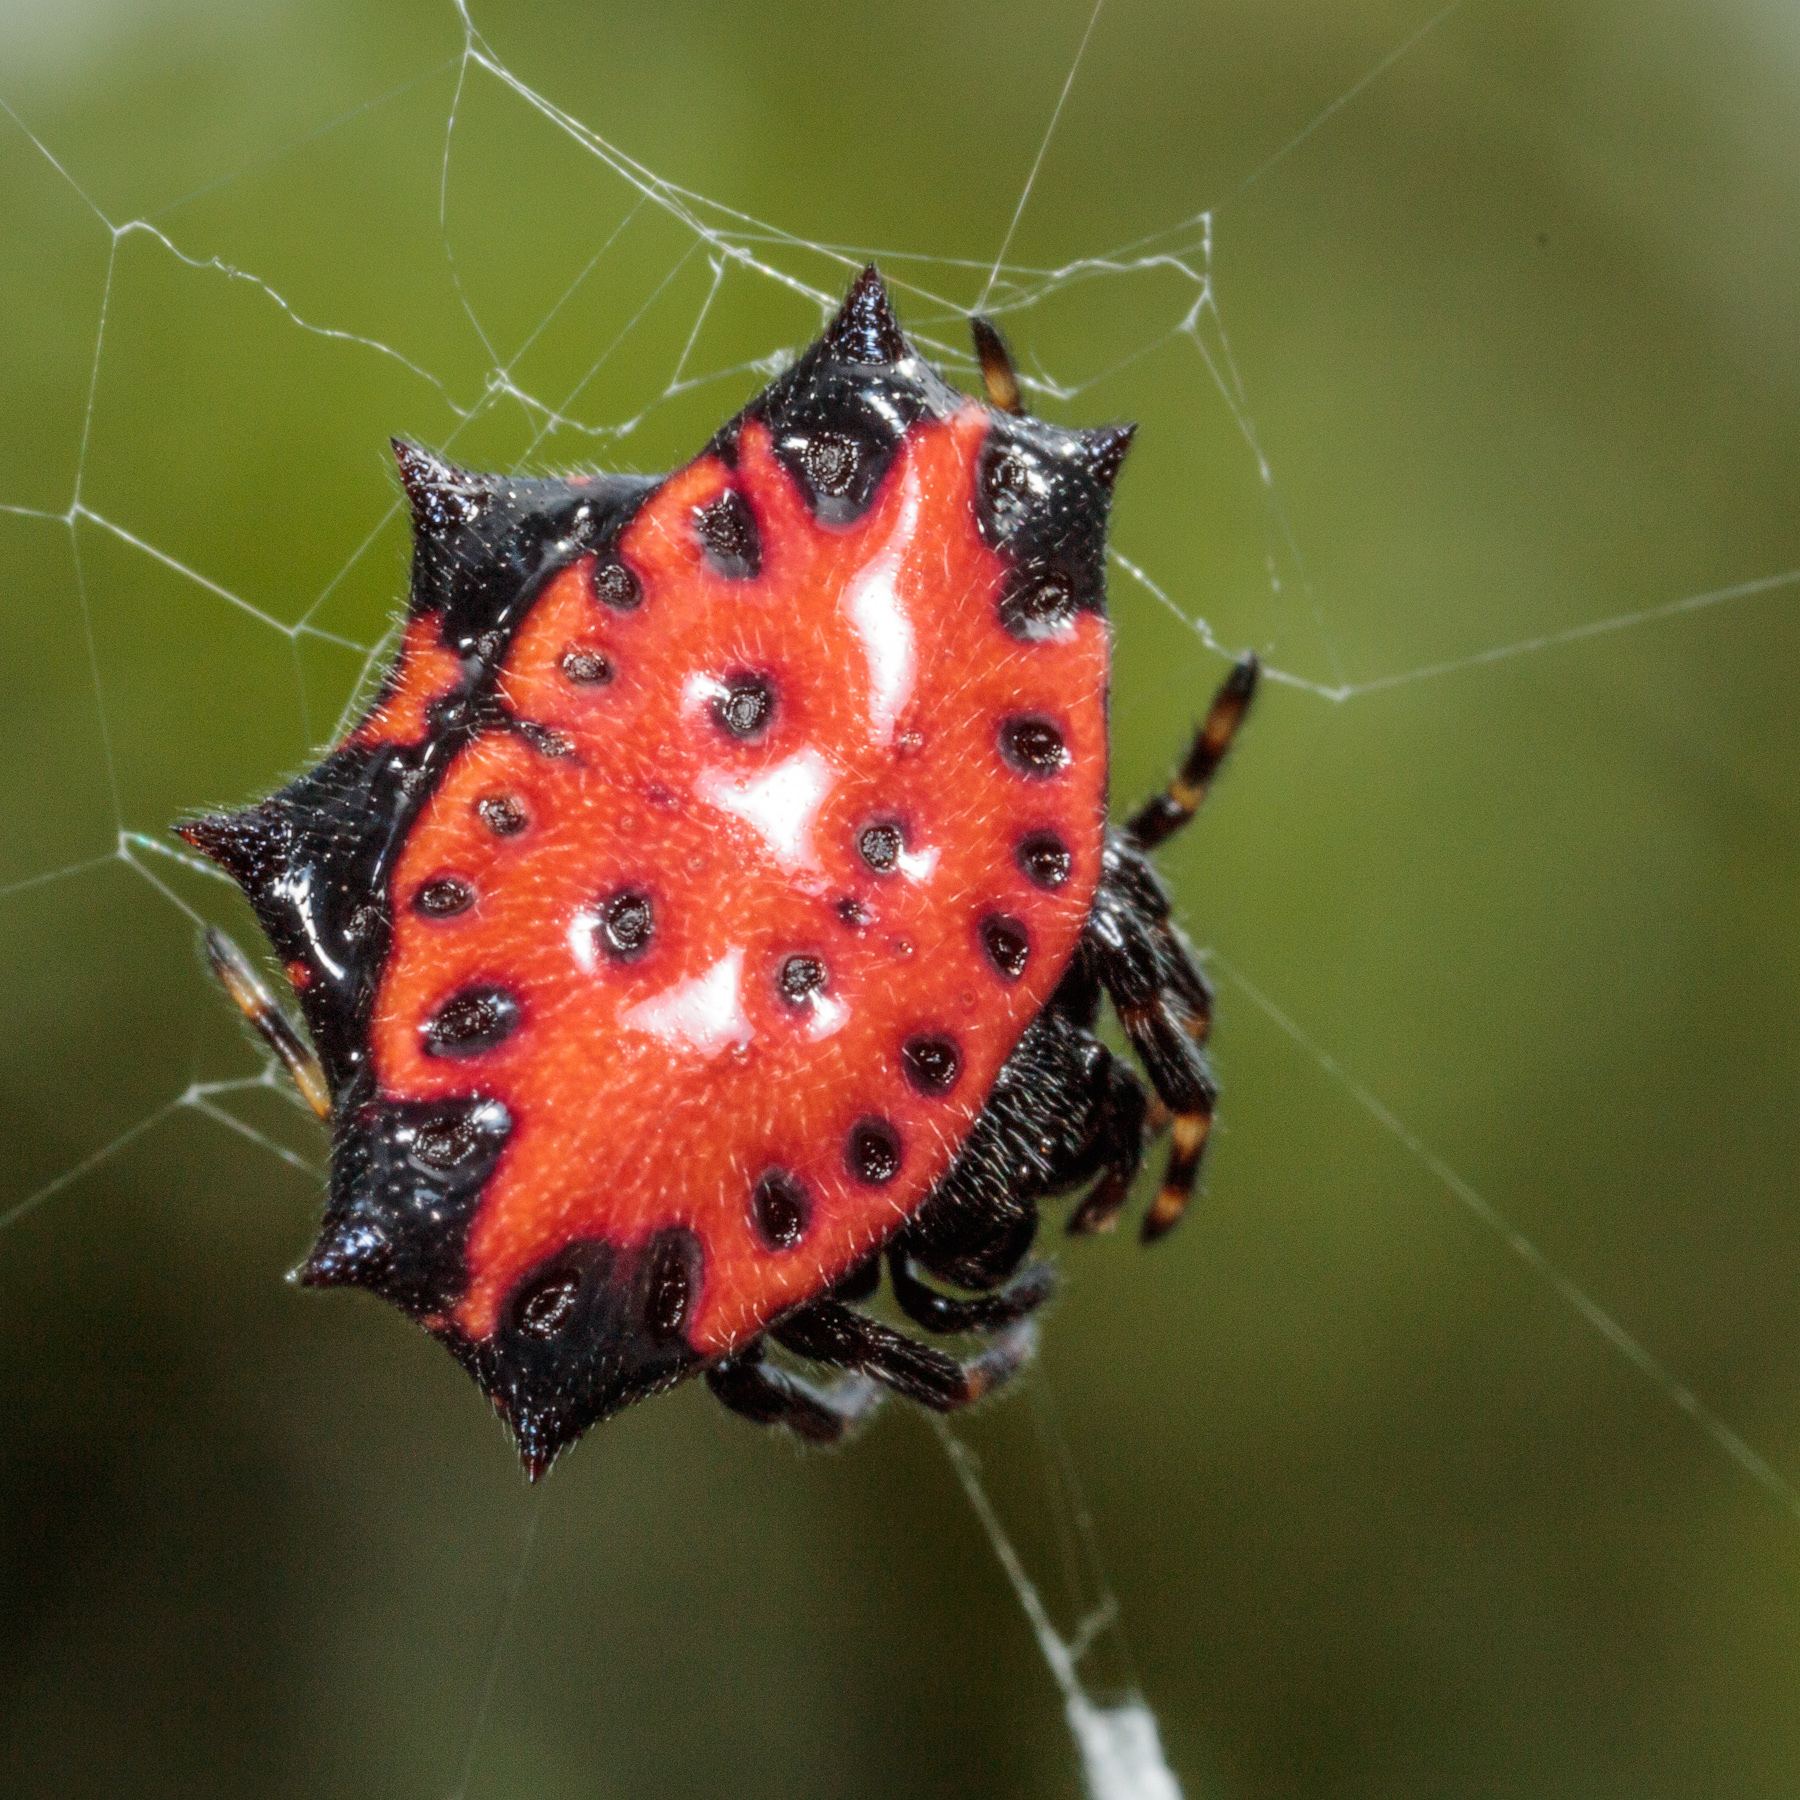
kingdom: Animalia
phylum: Arthropoda
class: Arachnida
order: Araneae
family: Araneidae
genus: Gasteracantha
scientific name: Gasteracantha cancriformis
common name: Orb weavers
